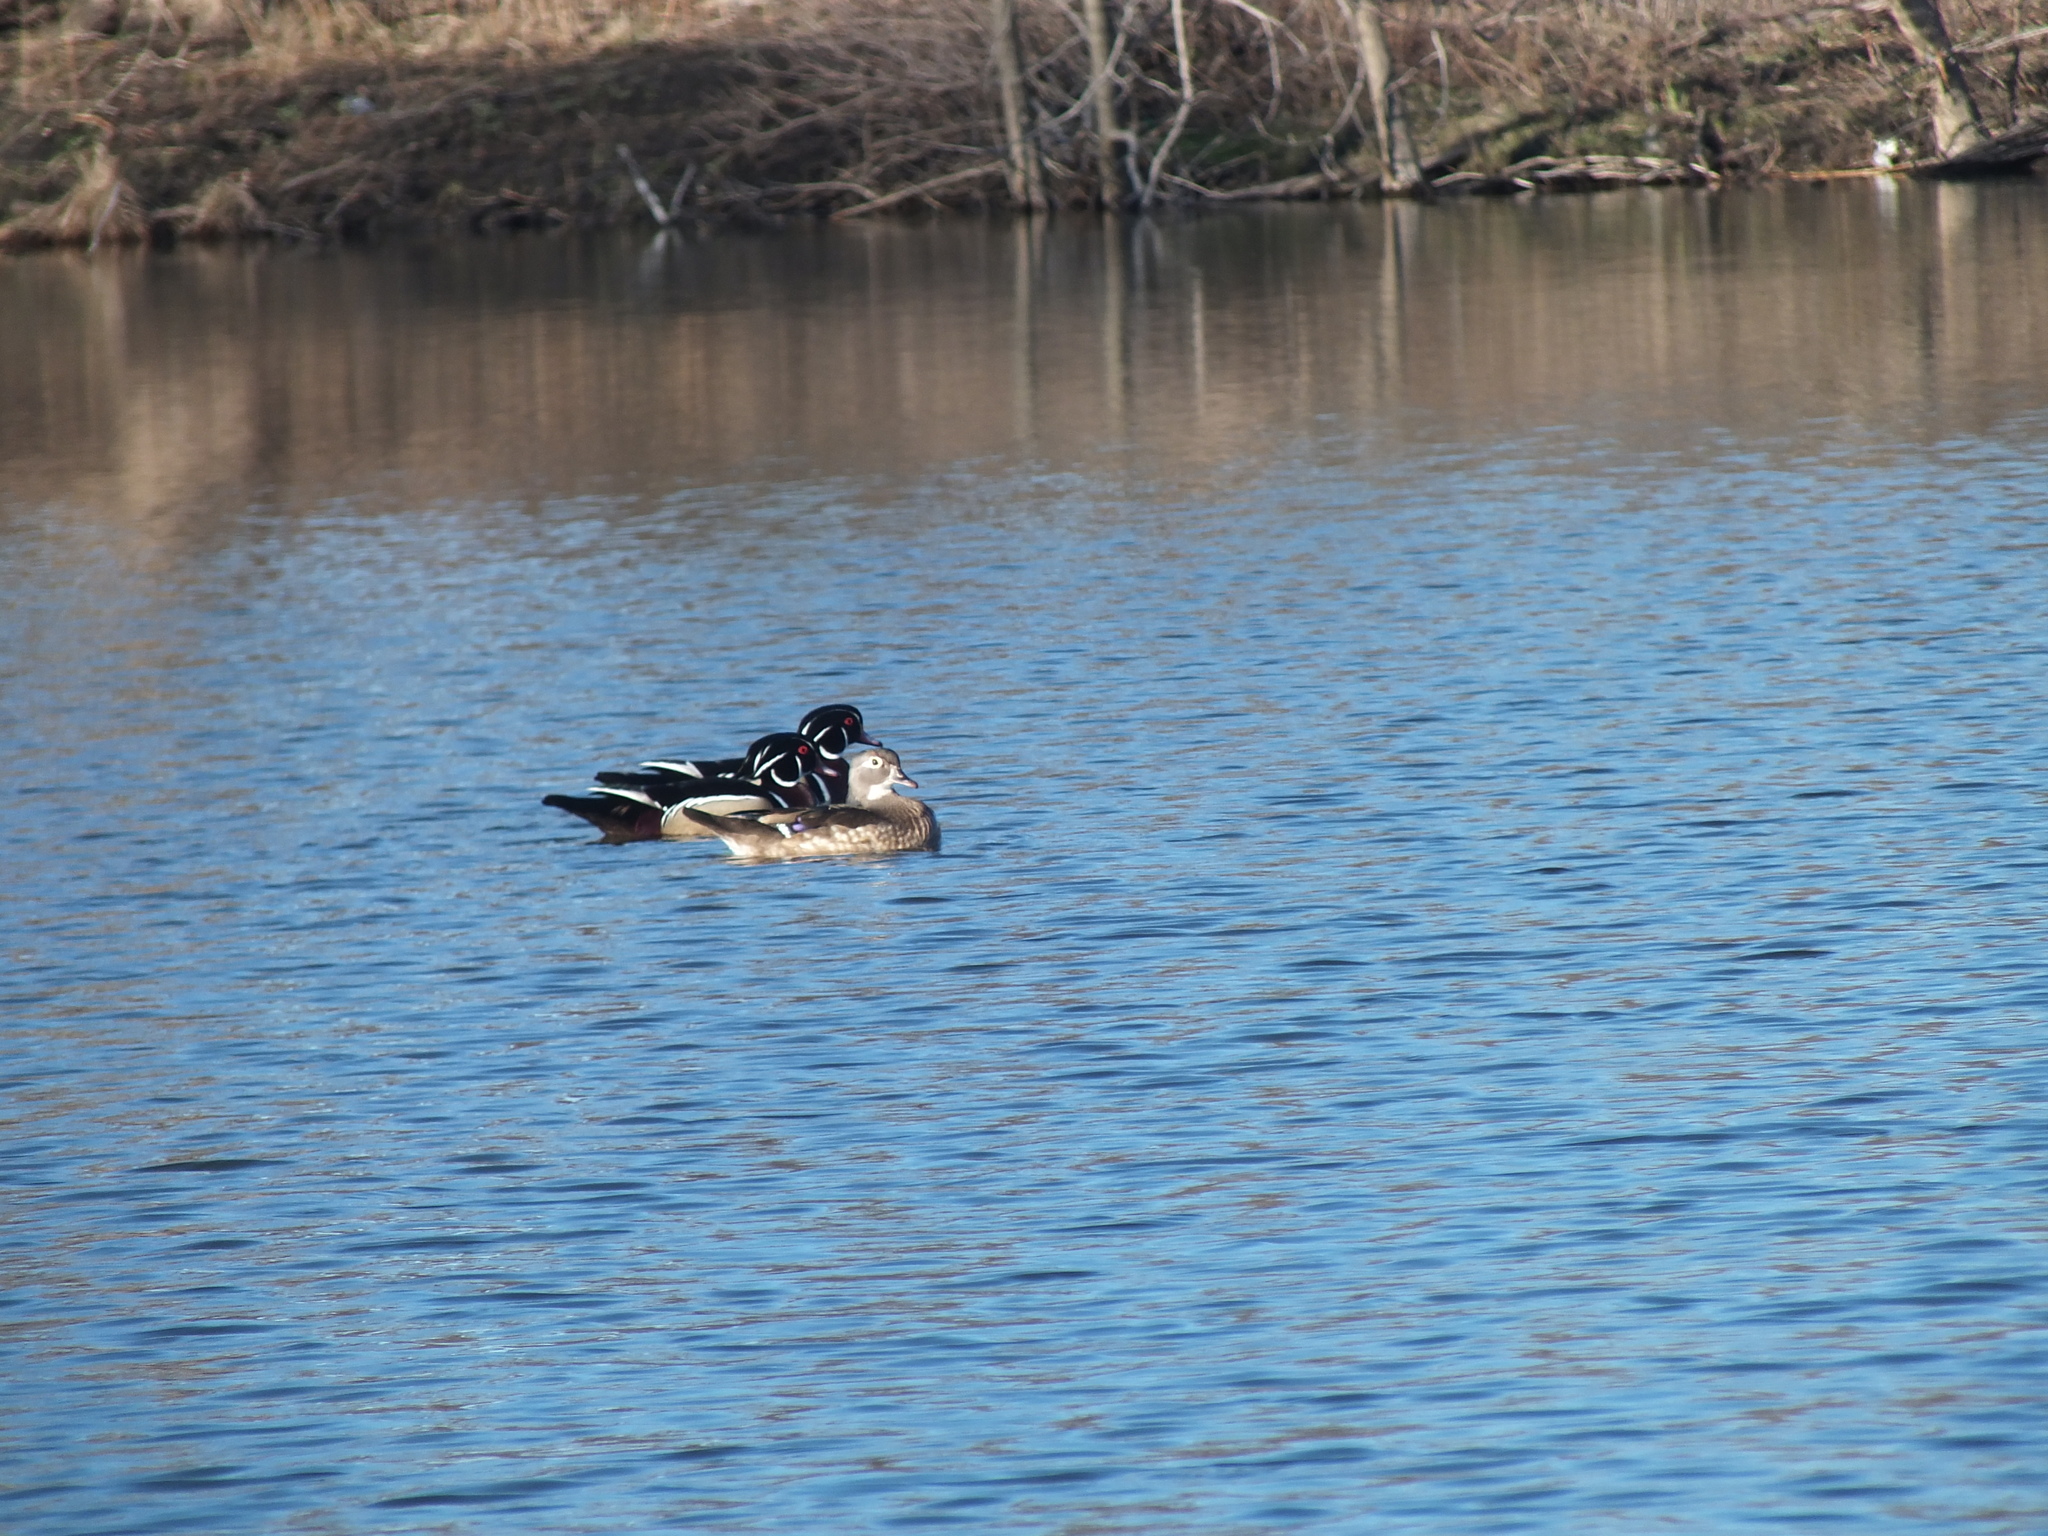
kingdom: Animalia
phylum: Chordata
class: Aves
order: Anseriformes
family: Anatidae
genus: Aix
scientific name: Aix sponsa
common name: Wood duck
